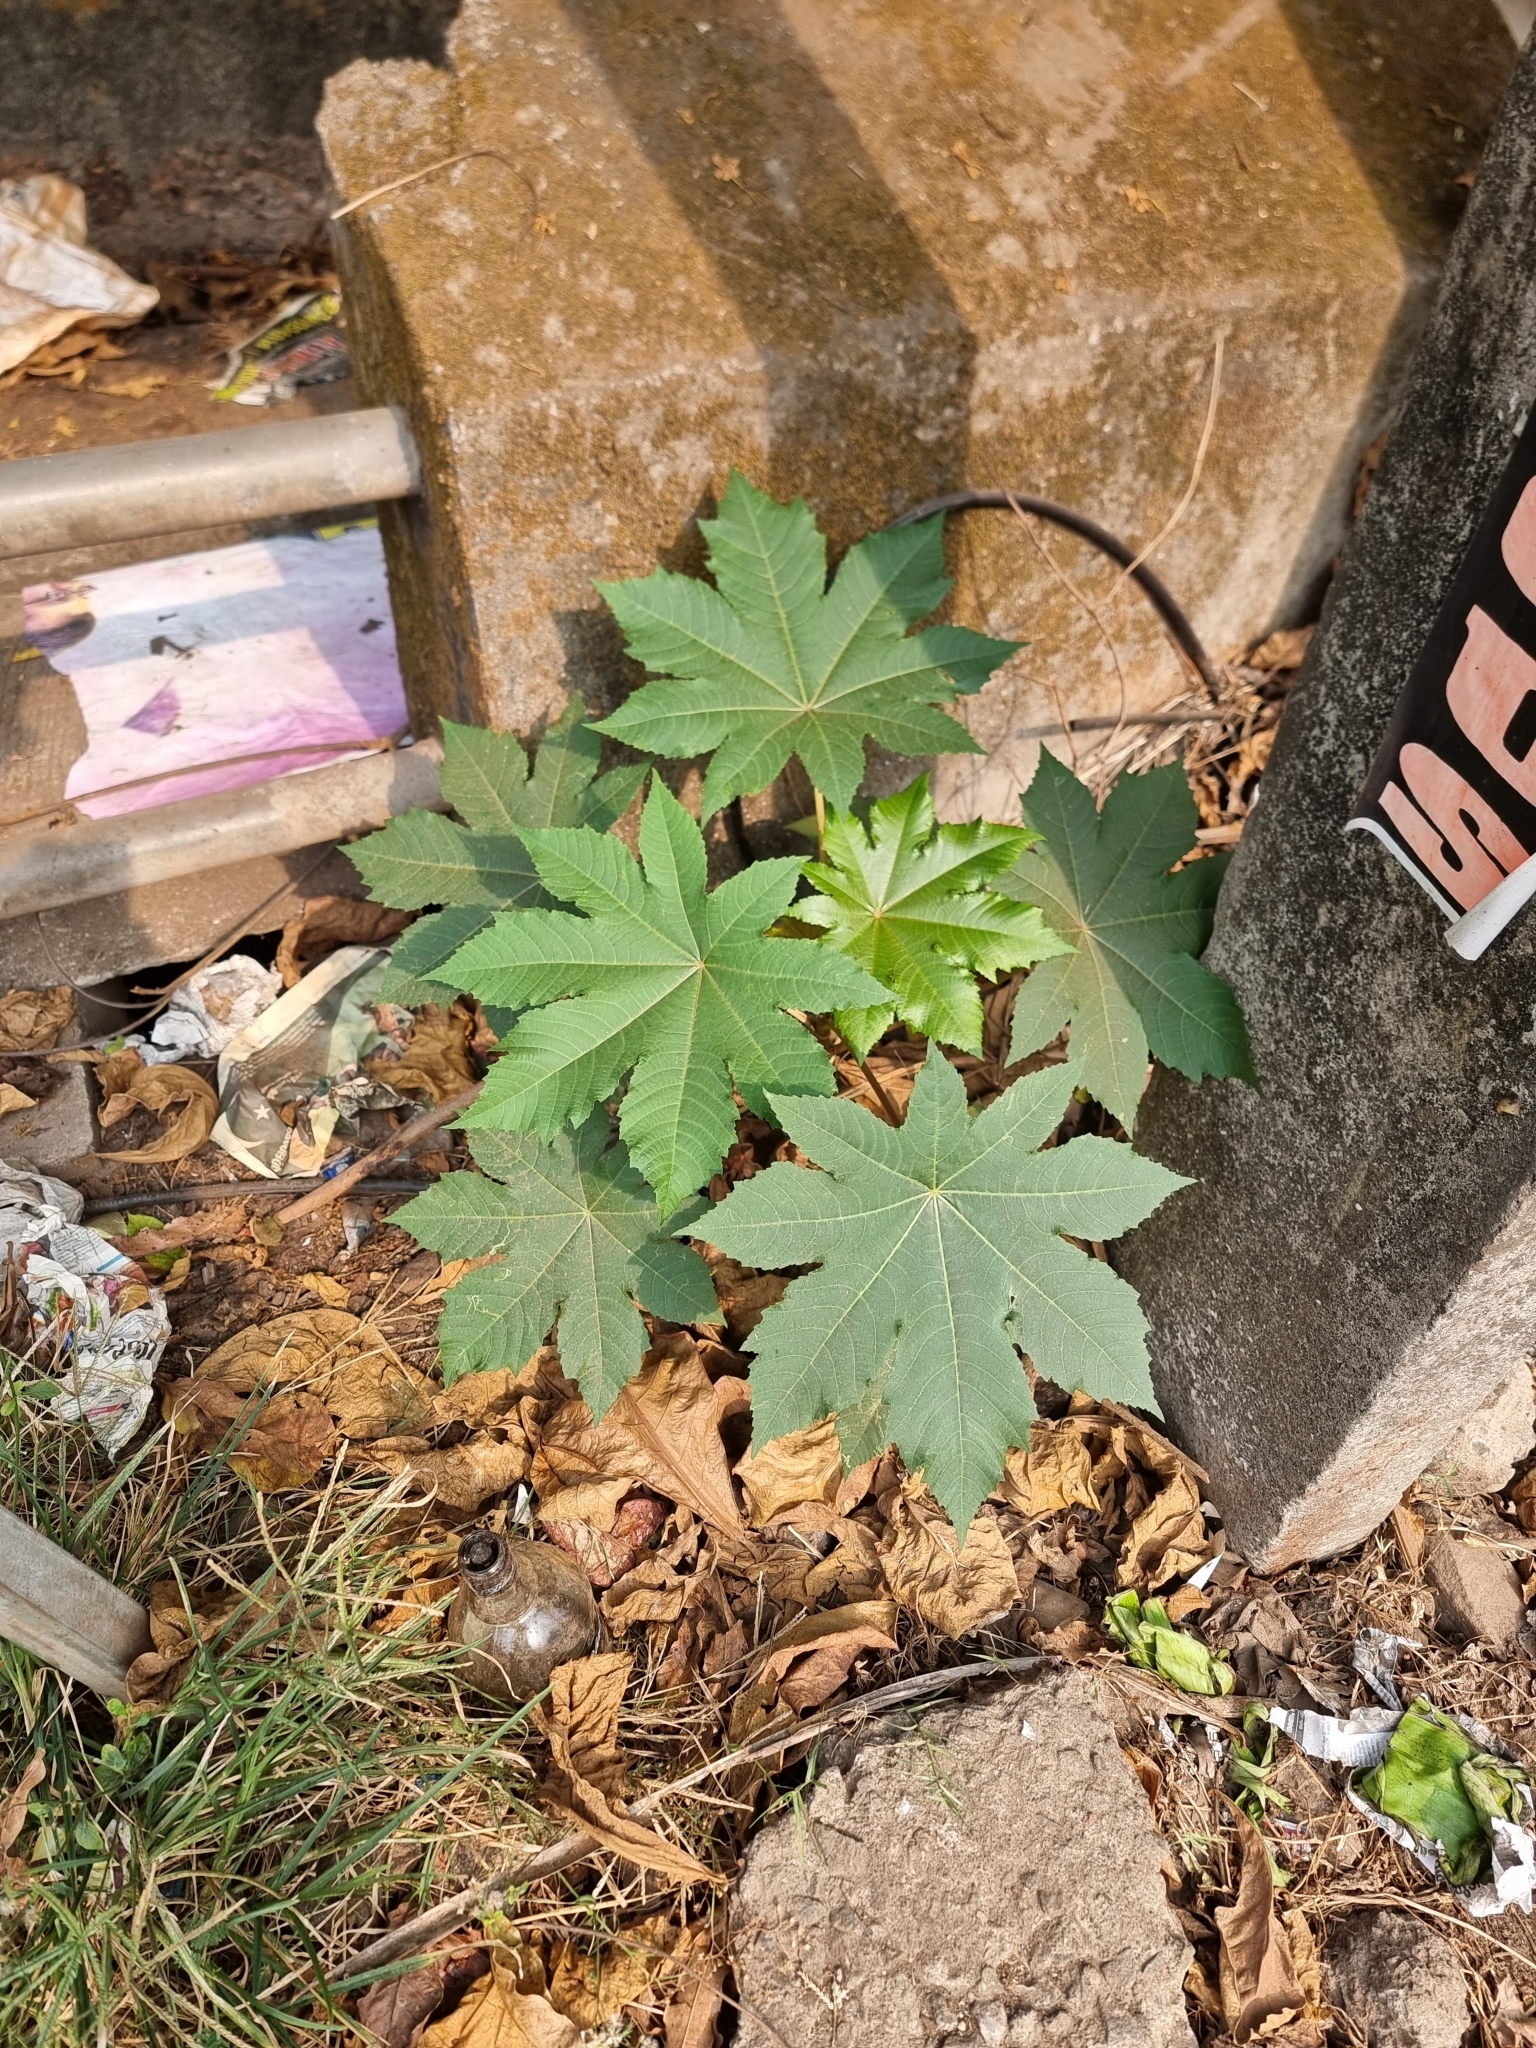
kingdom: Plantae
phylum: Tracheophyta
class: Magnoliopsida
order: Malpighiales
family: Euphorbiaceae
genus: Ricinus
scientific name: Ricinus communis
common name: Castor-oil-plant
